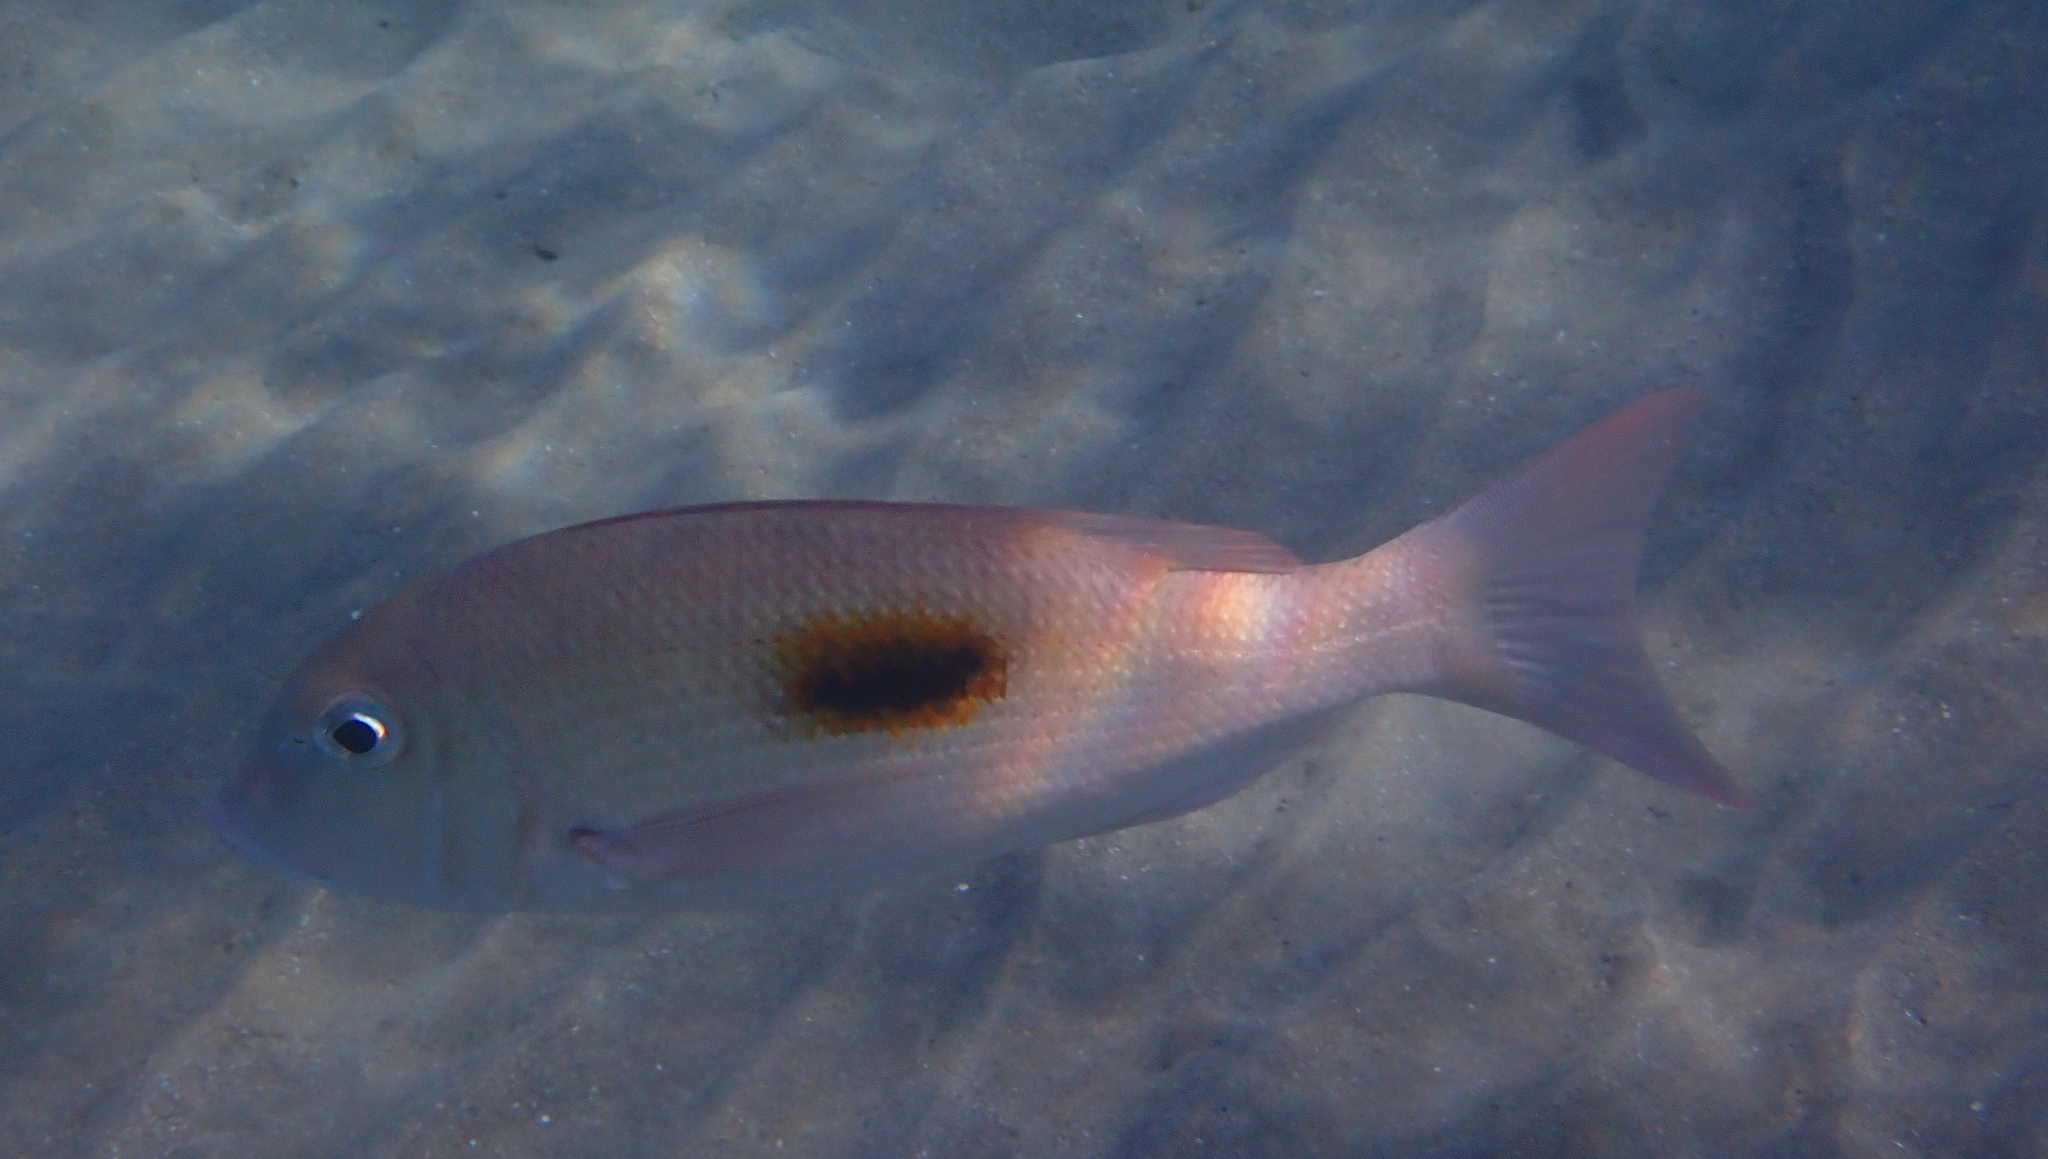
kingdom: Animalia
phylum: Chordata
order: Perciformes
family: Lethrinidae
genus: Lethrinus
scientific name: Lethrinus harak
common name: Blackspot emperor
